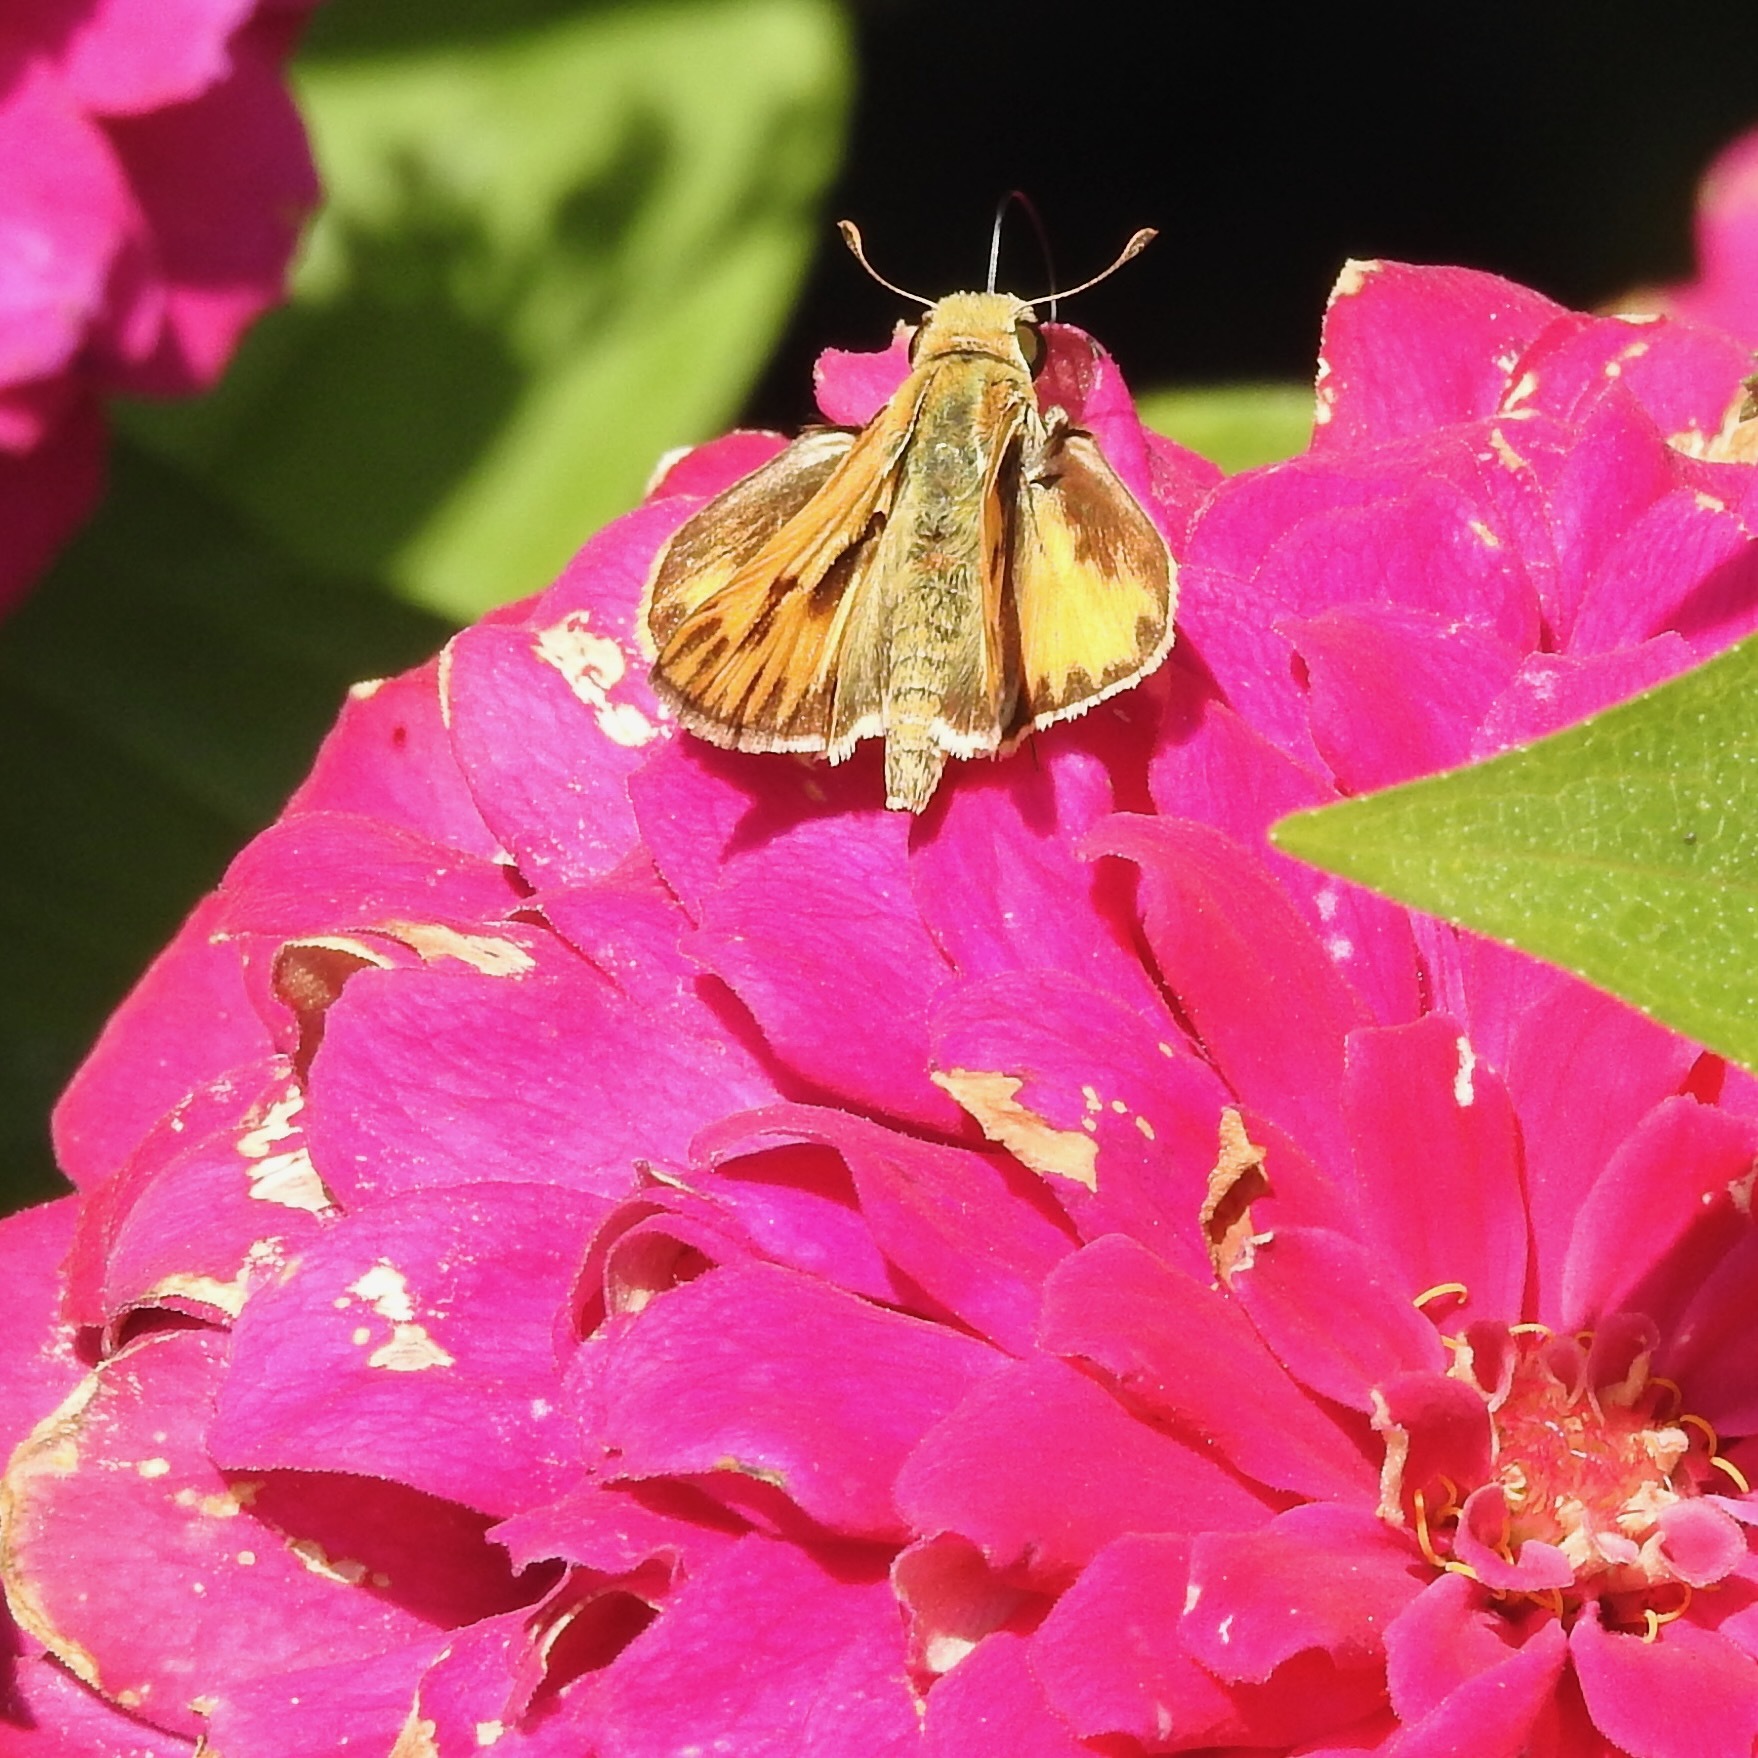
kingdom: Animalia
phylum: Arthropoda
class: Insecta
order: Lepidoptera
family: Hesperiidae
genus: Hylephila
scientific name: Hylephila phyleus
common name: Fiery skipper
